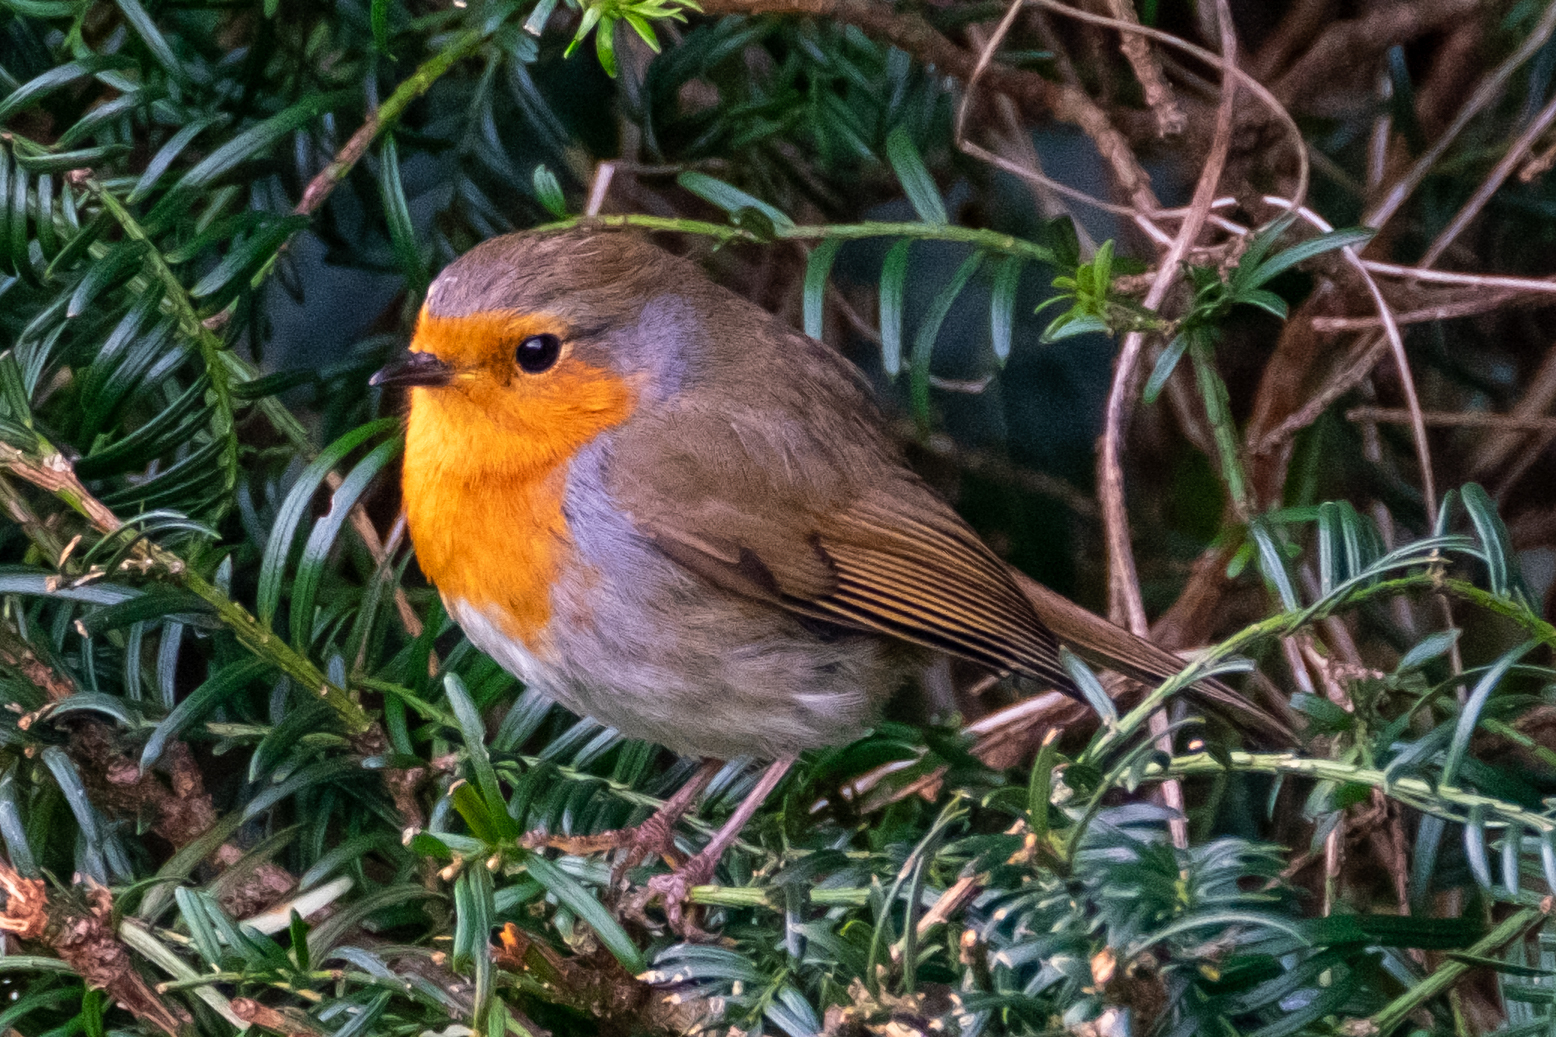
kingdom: Animalia
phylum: Chordata
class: Aves
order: Passeriformes
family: Muscicapidae
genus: Erithacus
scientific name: Erithacus rubecula
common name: European robin
